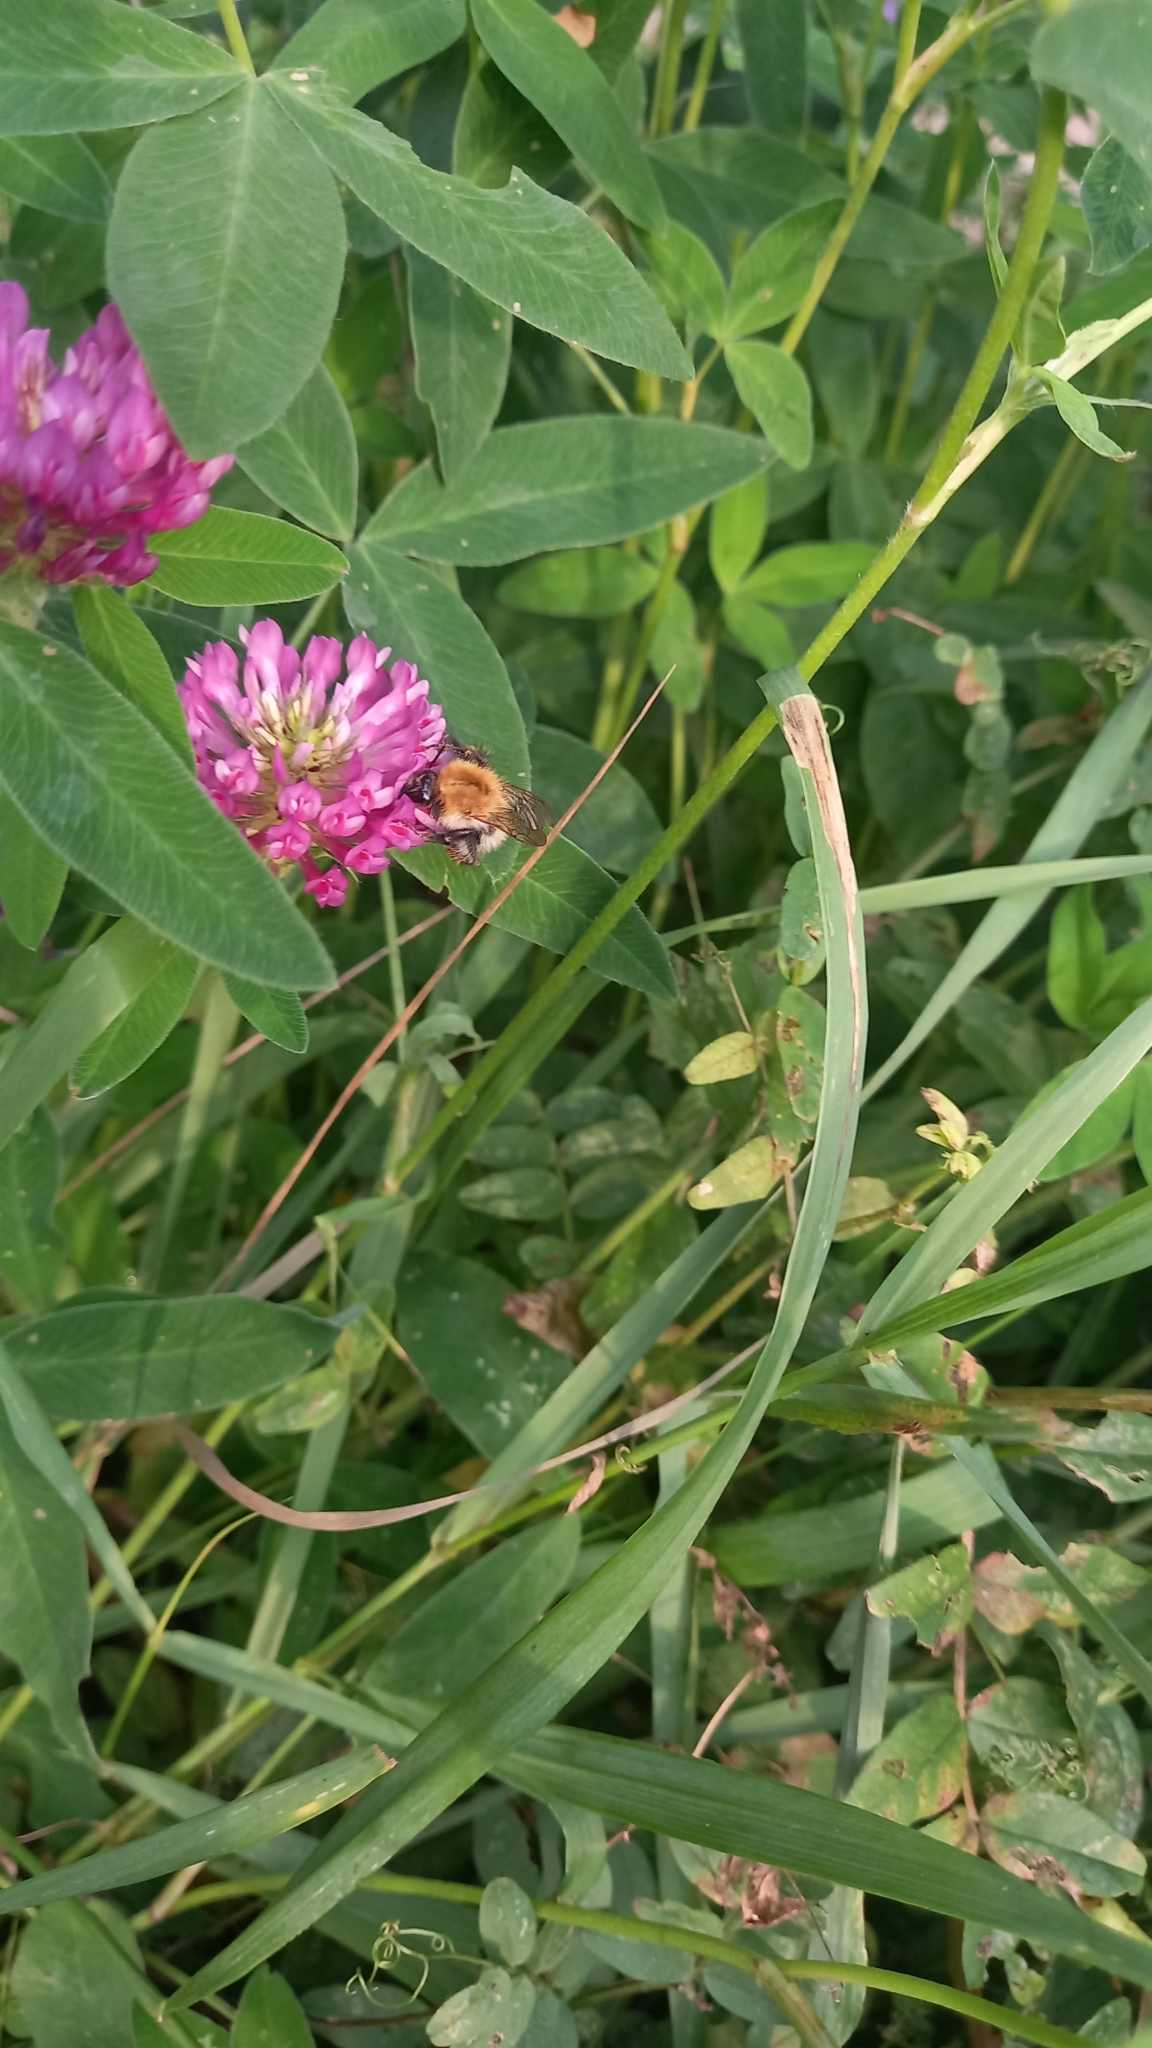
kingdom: Animalia
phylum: Arthropoda
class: Insecta
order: Hymenoptera
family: Apidae
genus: Bombus
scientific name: Bombus pascuorum
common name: Common carder bee
